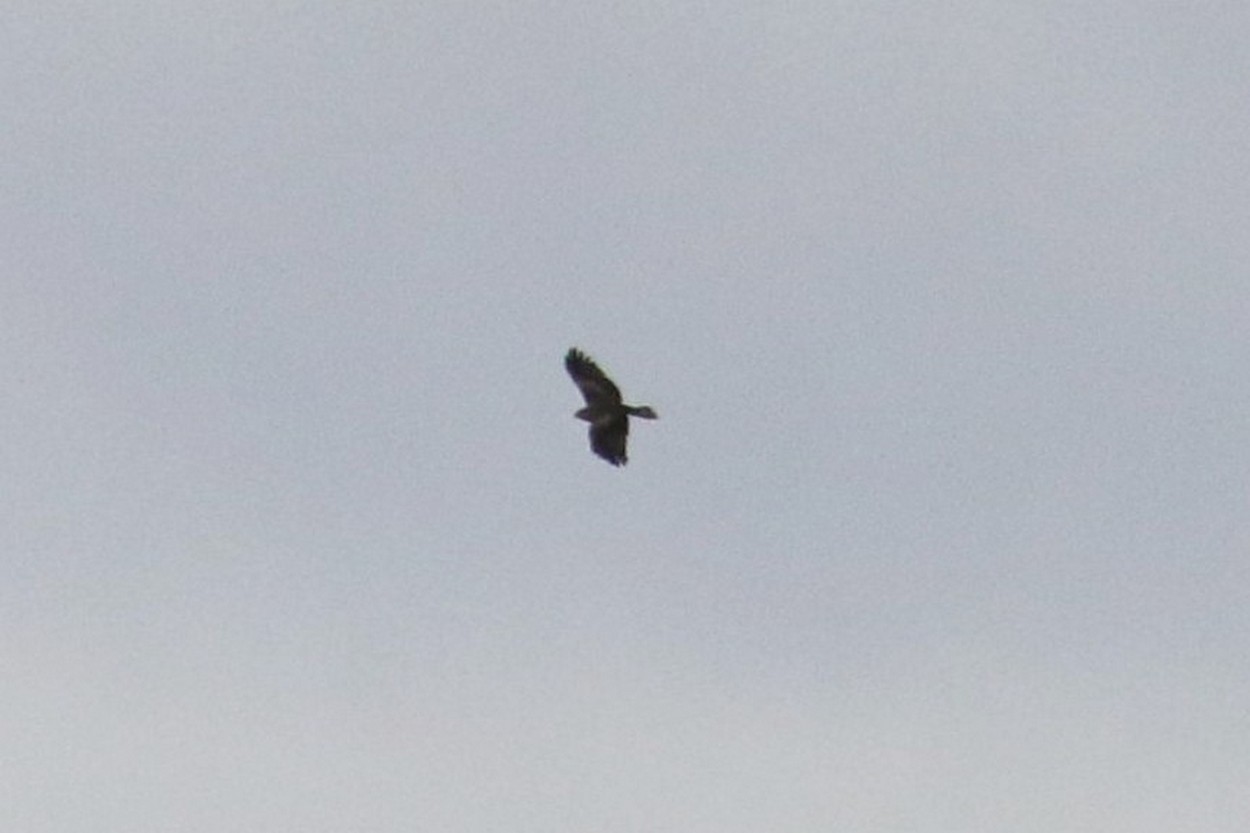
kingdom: Animalia
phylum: Chordata
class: Aves
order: Accipitriformes
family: Accipitridae
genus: Milvus
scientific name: Milvus migrans
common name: Black kite
